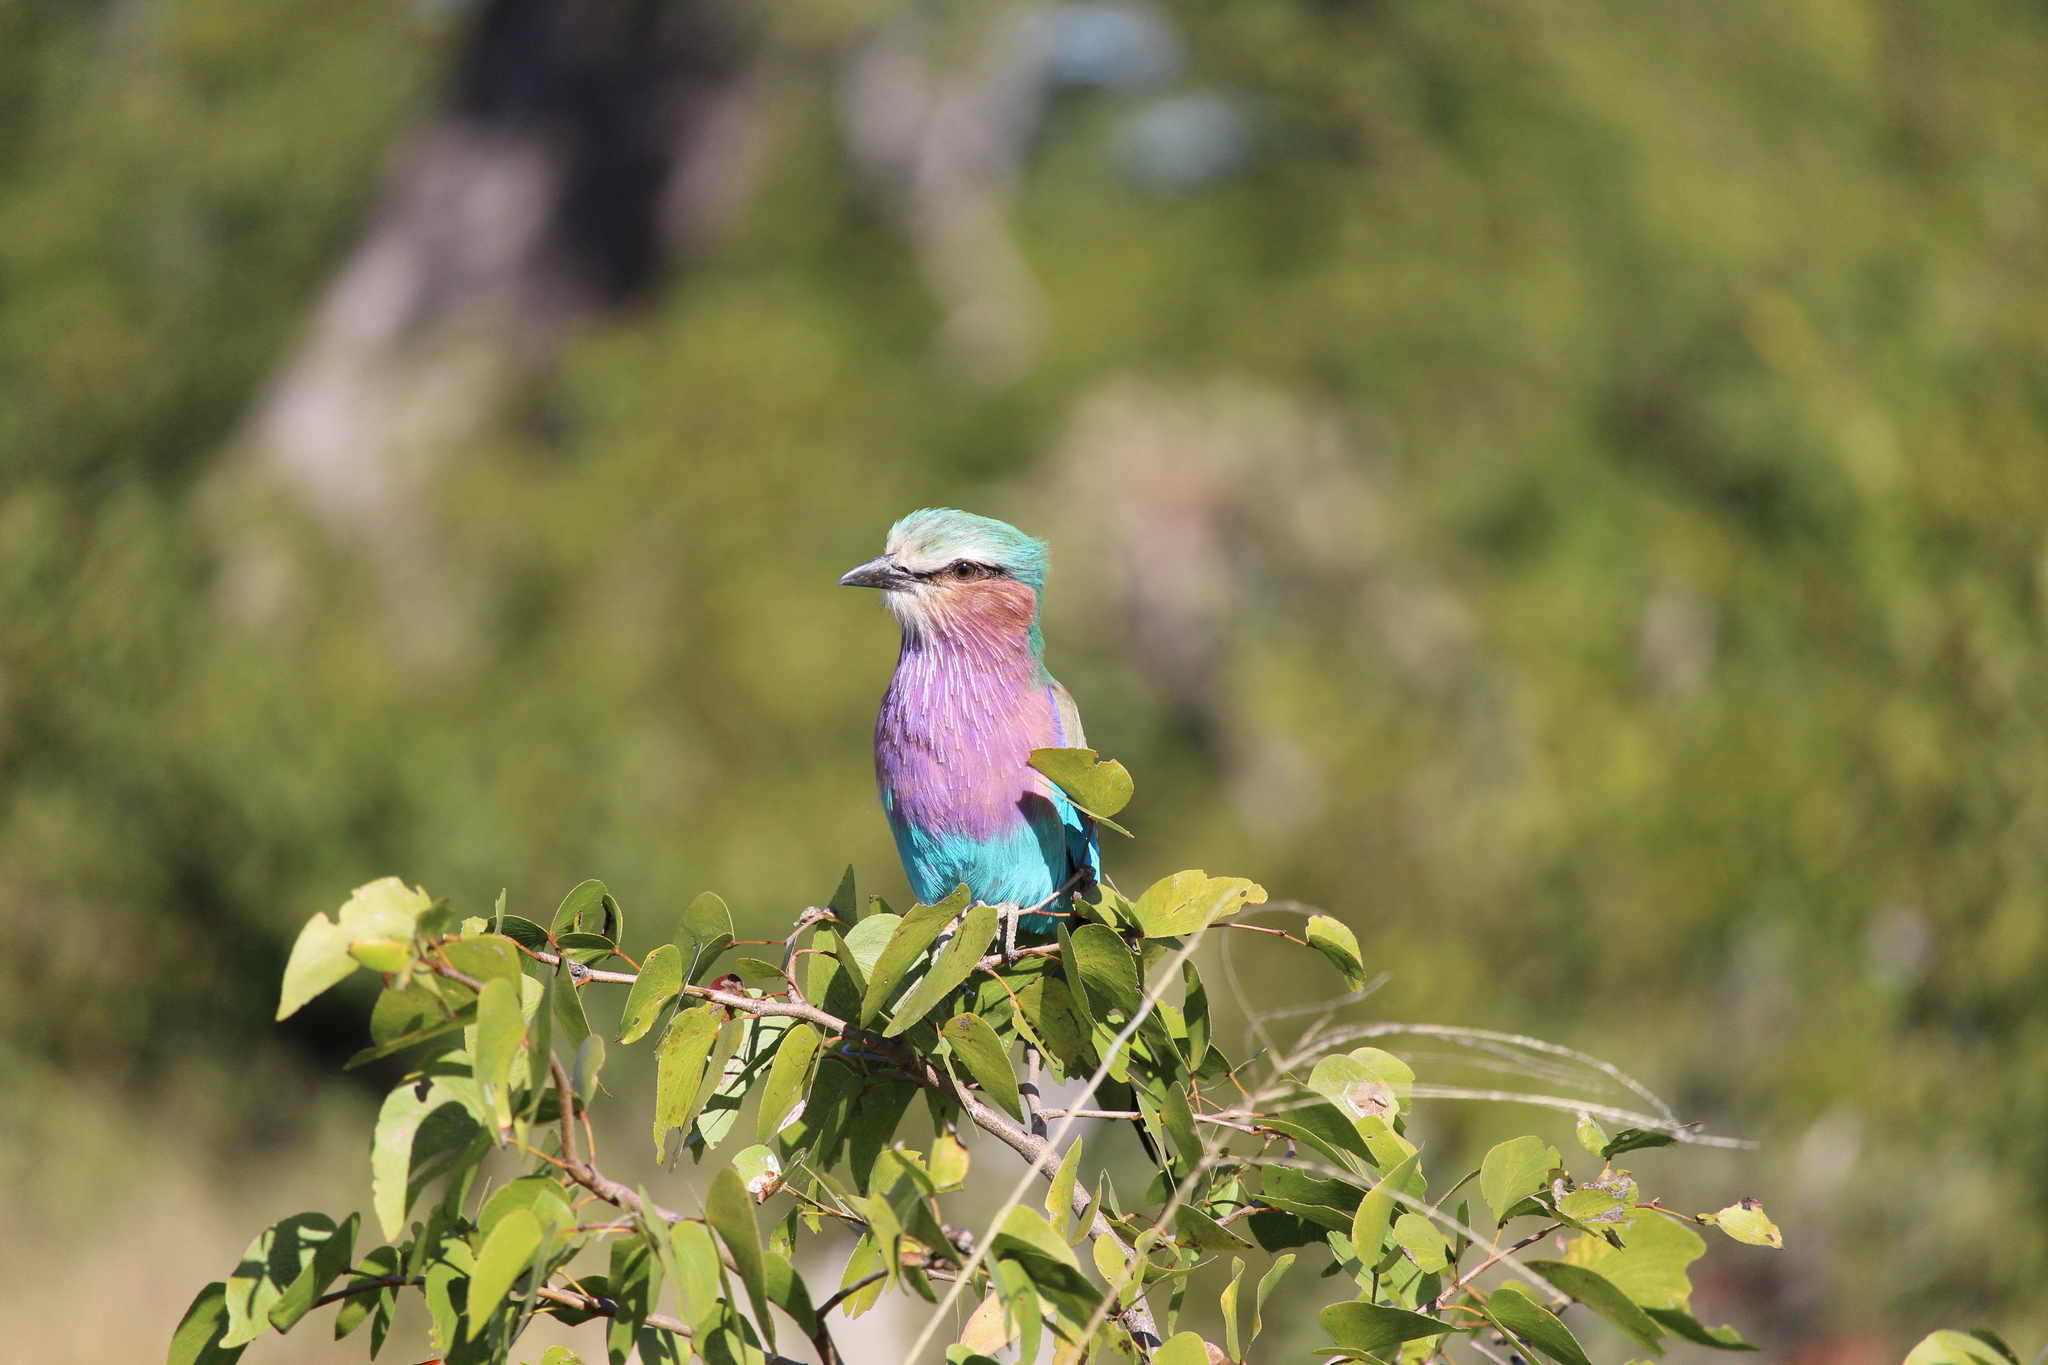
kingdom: Animalia
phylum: Chordata
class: Aves
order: Coraciiformes
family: Coraciidae
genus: Coracias
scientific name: Coracias caudatus
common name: Lilac-breasted roller
